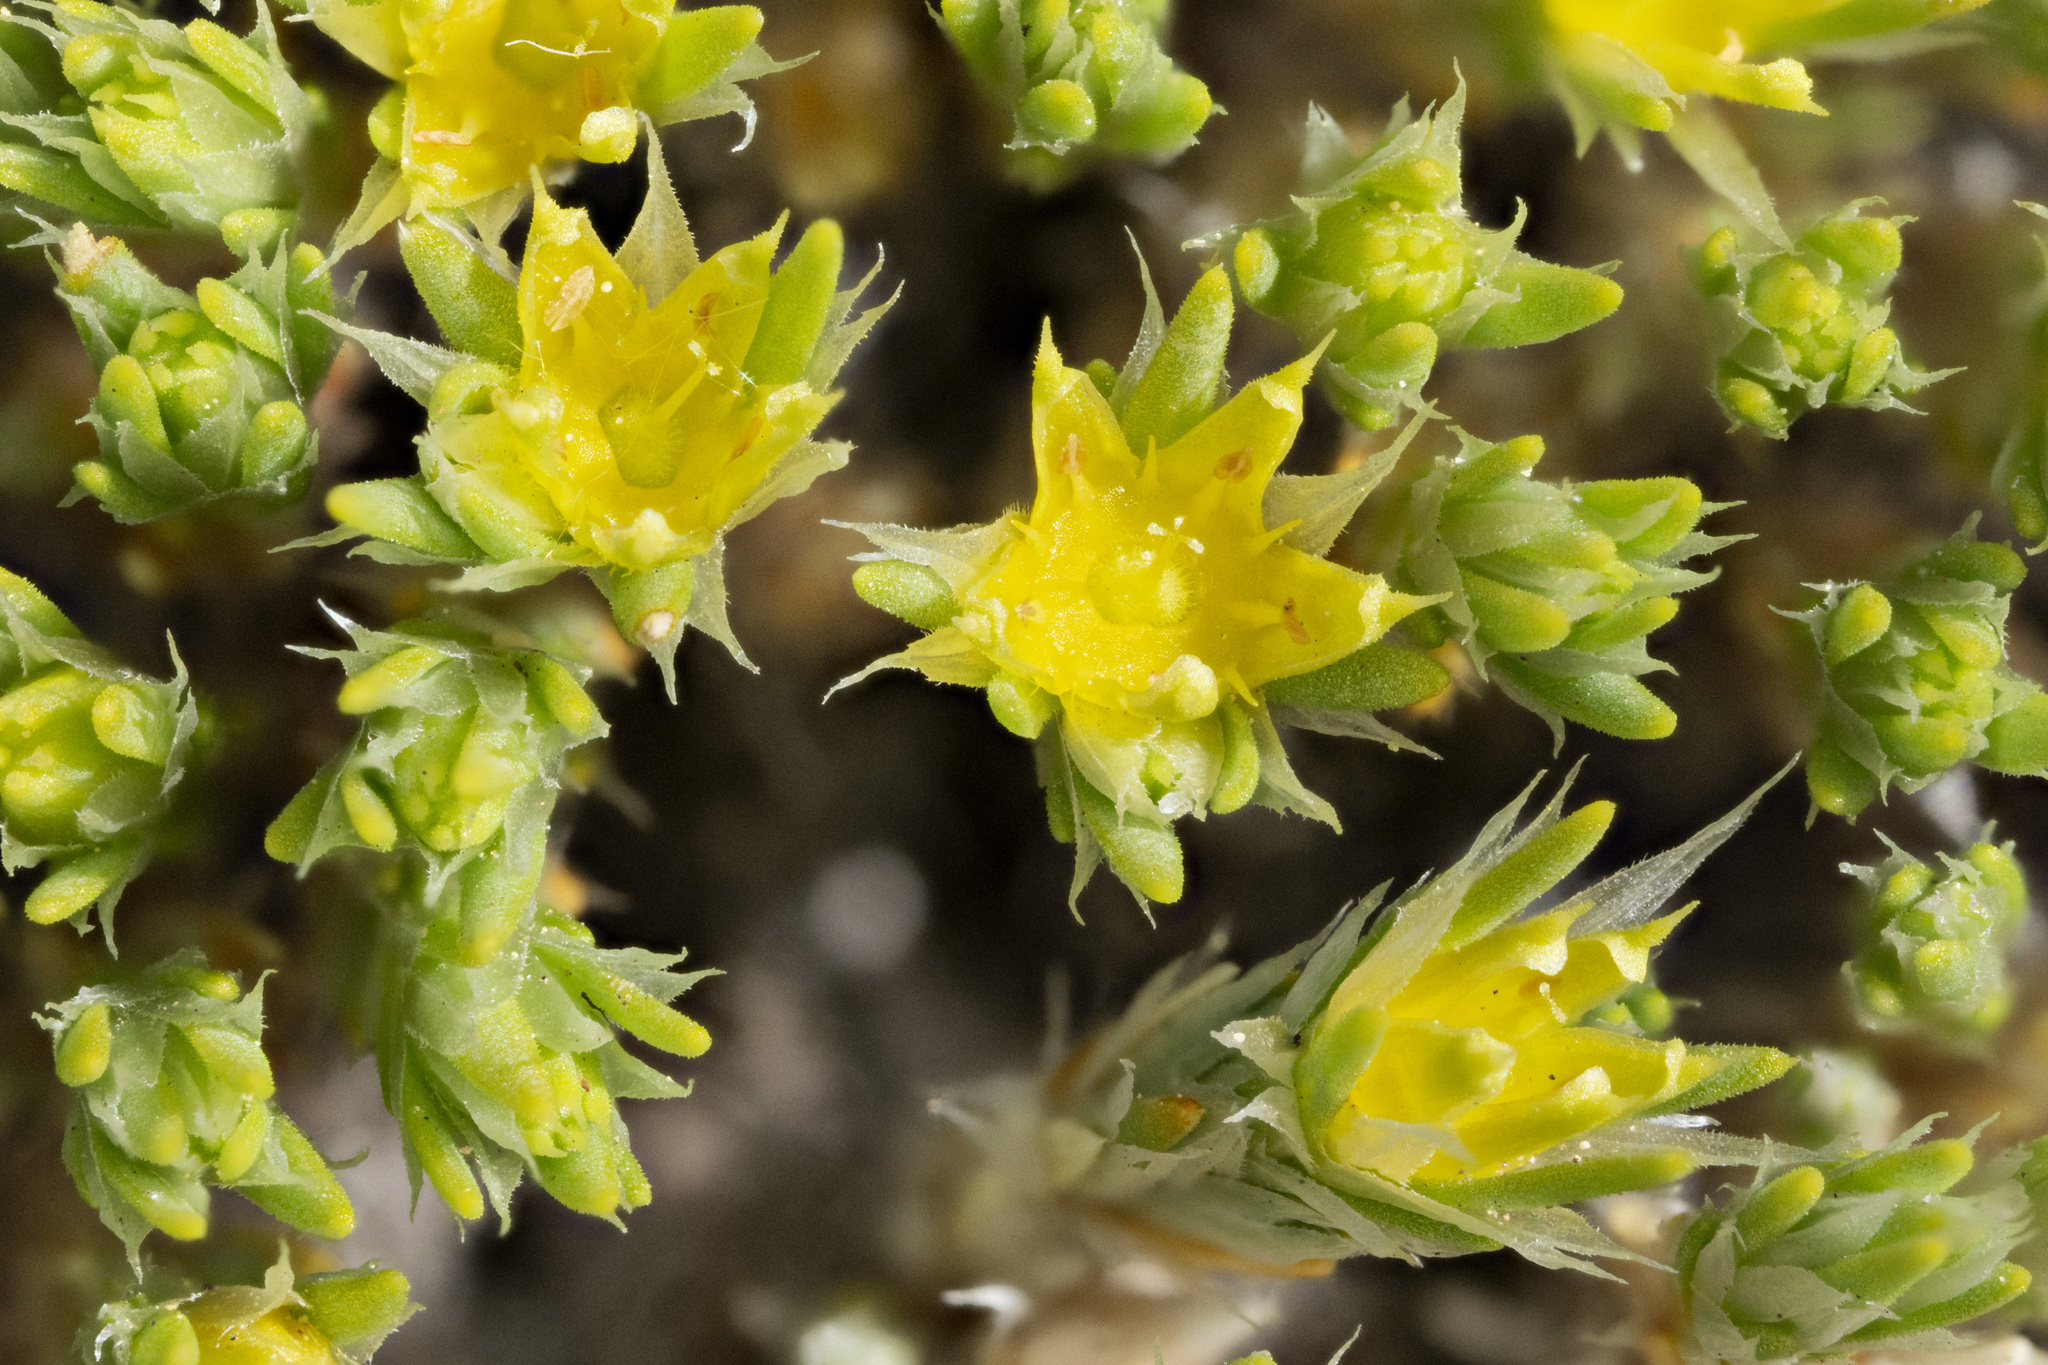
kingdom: Plantae
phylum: Tracheophyta
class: Magnoliopsida
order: Caryophyllales
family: Caryophyllaceae
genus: Paronychia
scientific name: Paronychia sessiliflora
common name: Creeping nailwort
